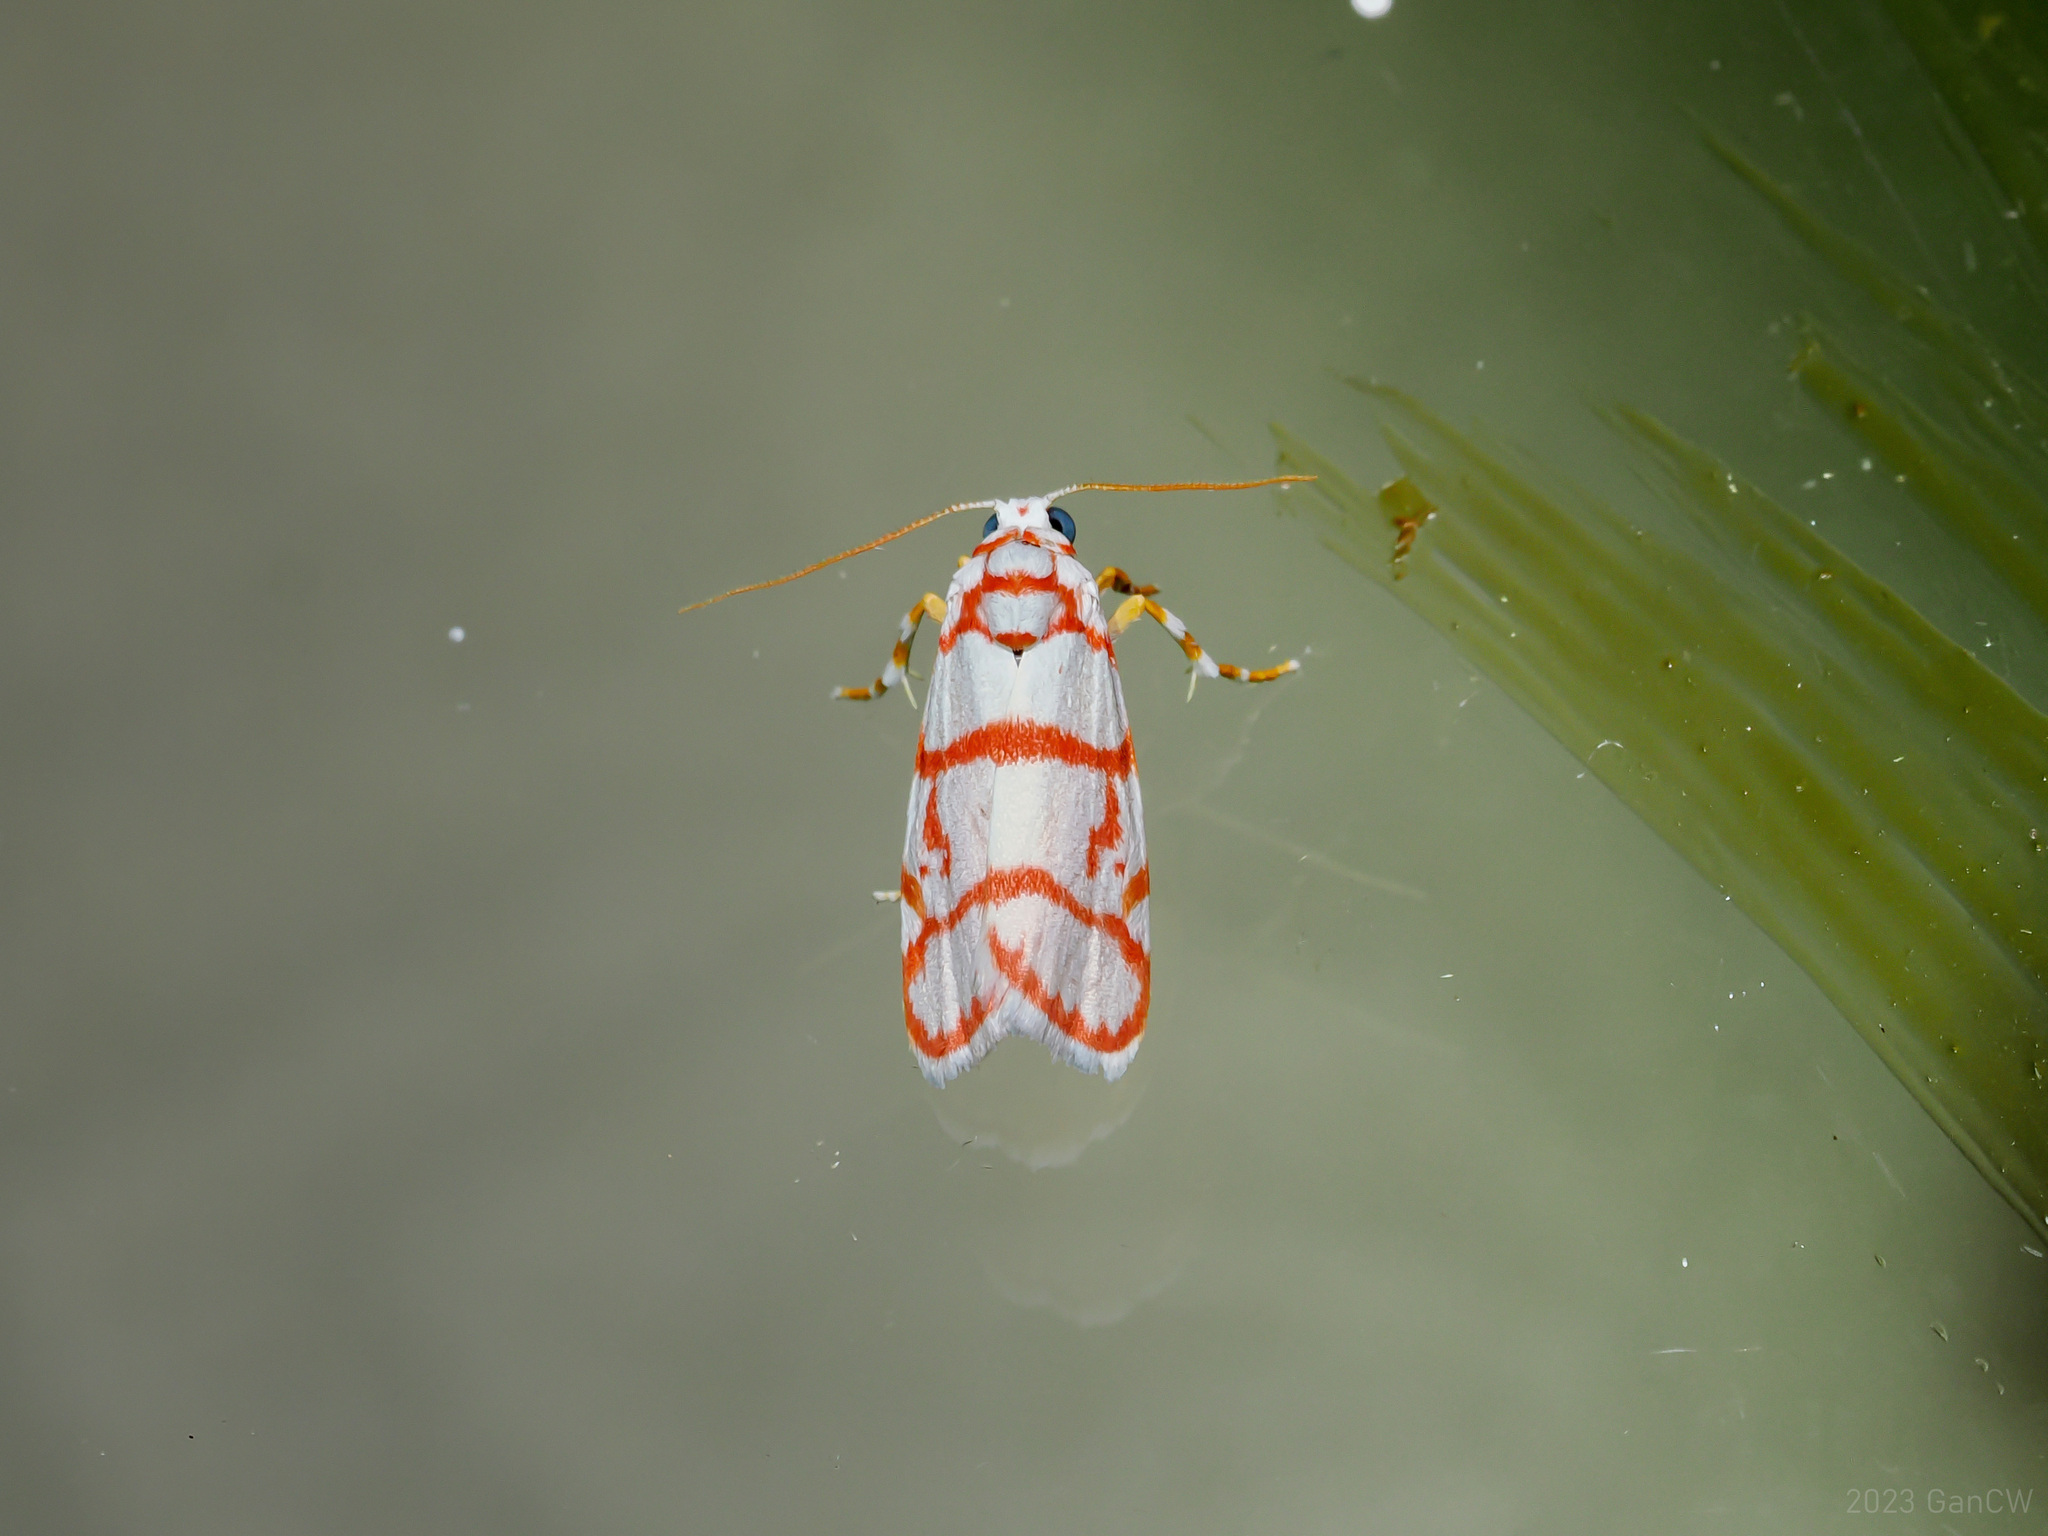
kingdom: Animalia
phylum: Arthropoda
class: Insecta
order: Lepidoptera
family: Erebidae
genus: Cyana
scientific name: Cyana pudens
